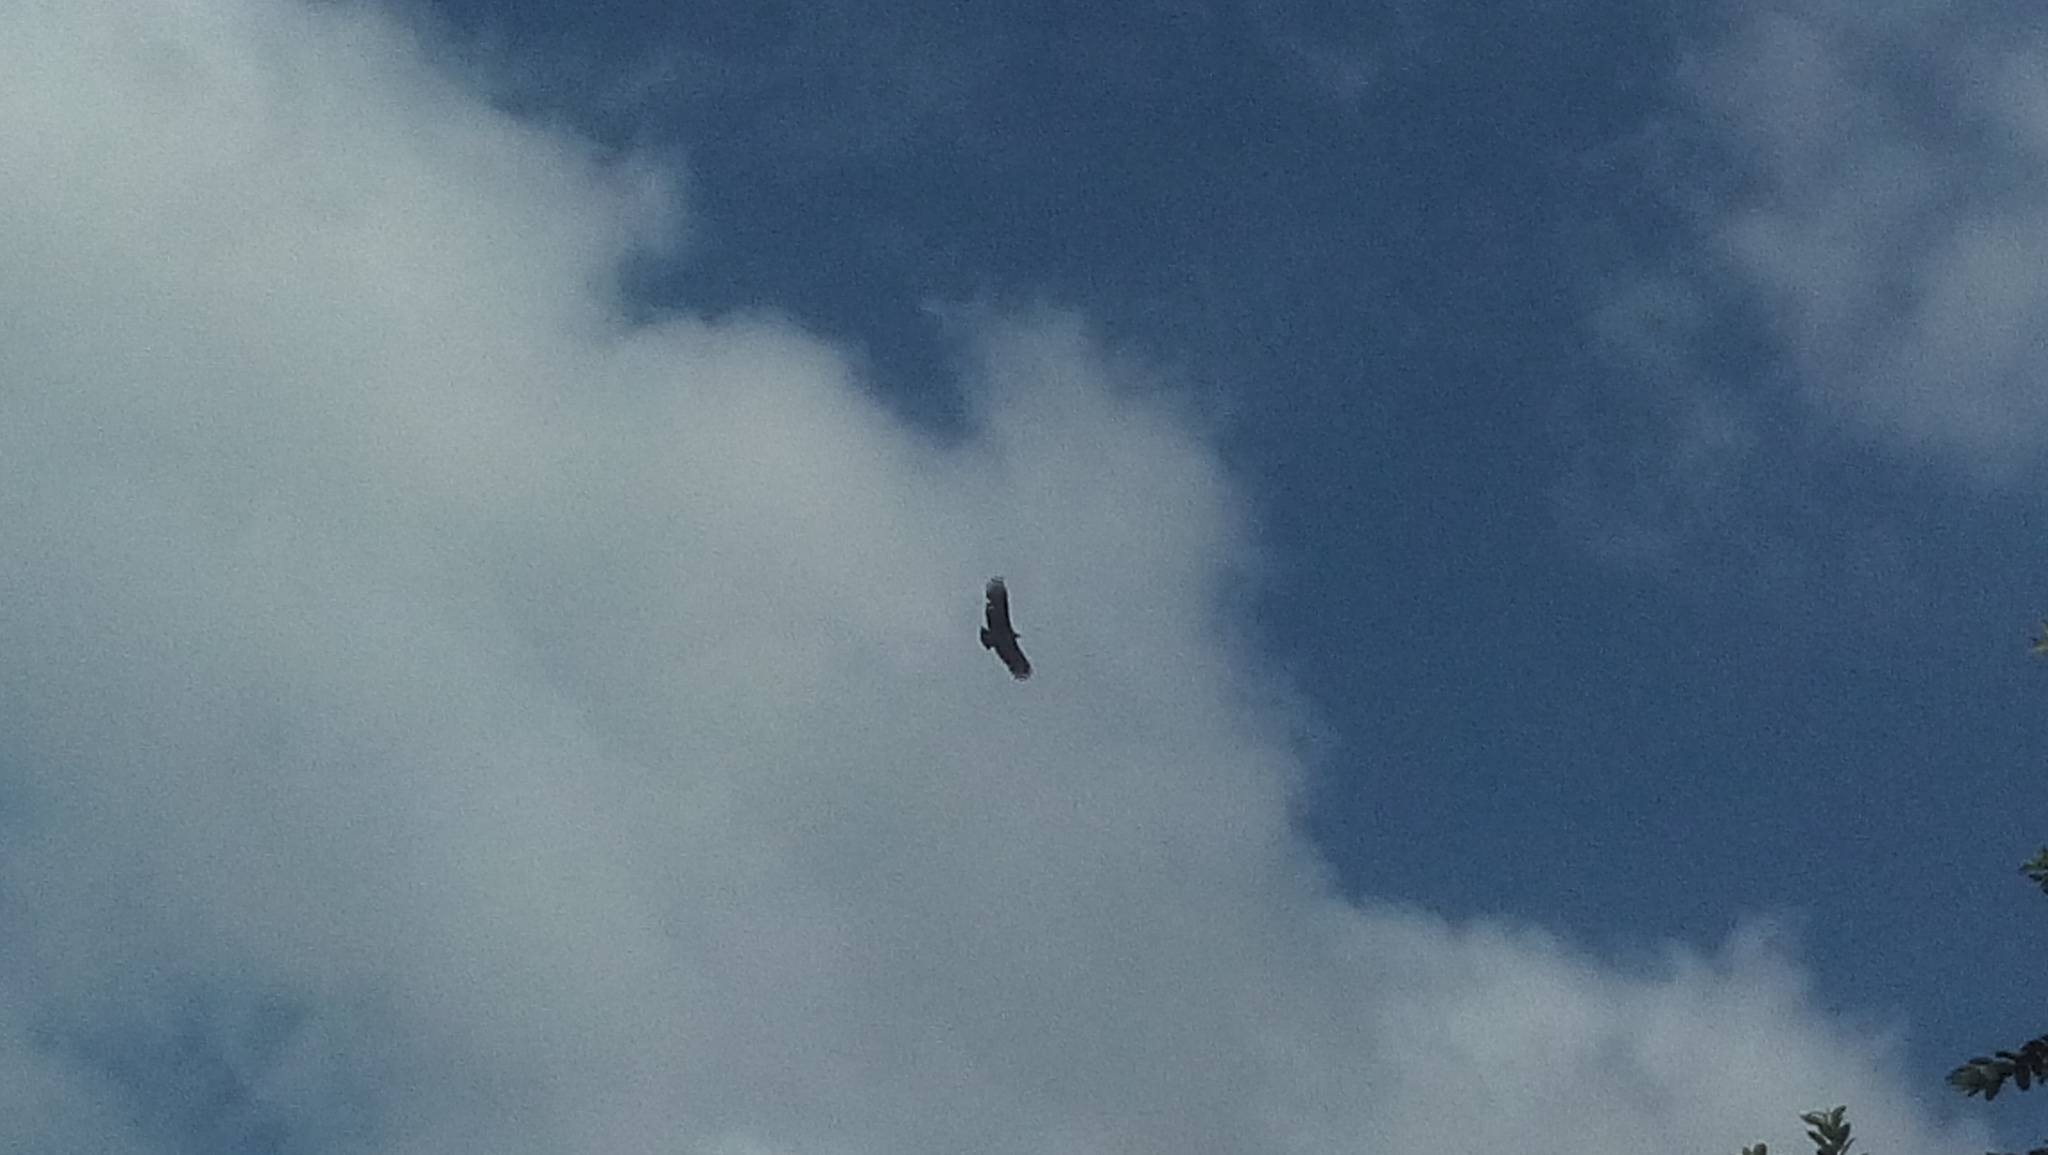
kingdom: Animalia
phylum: Chordata
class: Aves
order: Accipitriformes
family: Cathartidae
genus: Coragyps
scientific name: Coragyps atratus
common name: Black vulture
